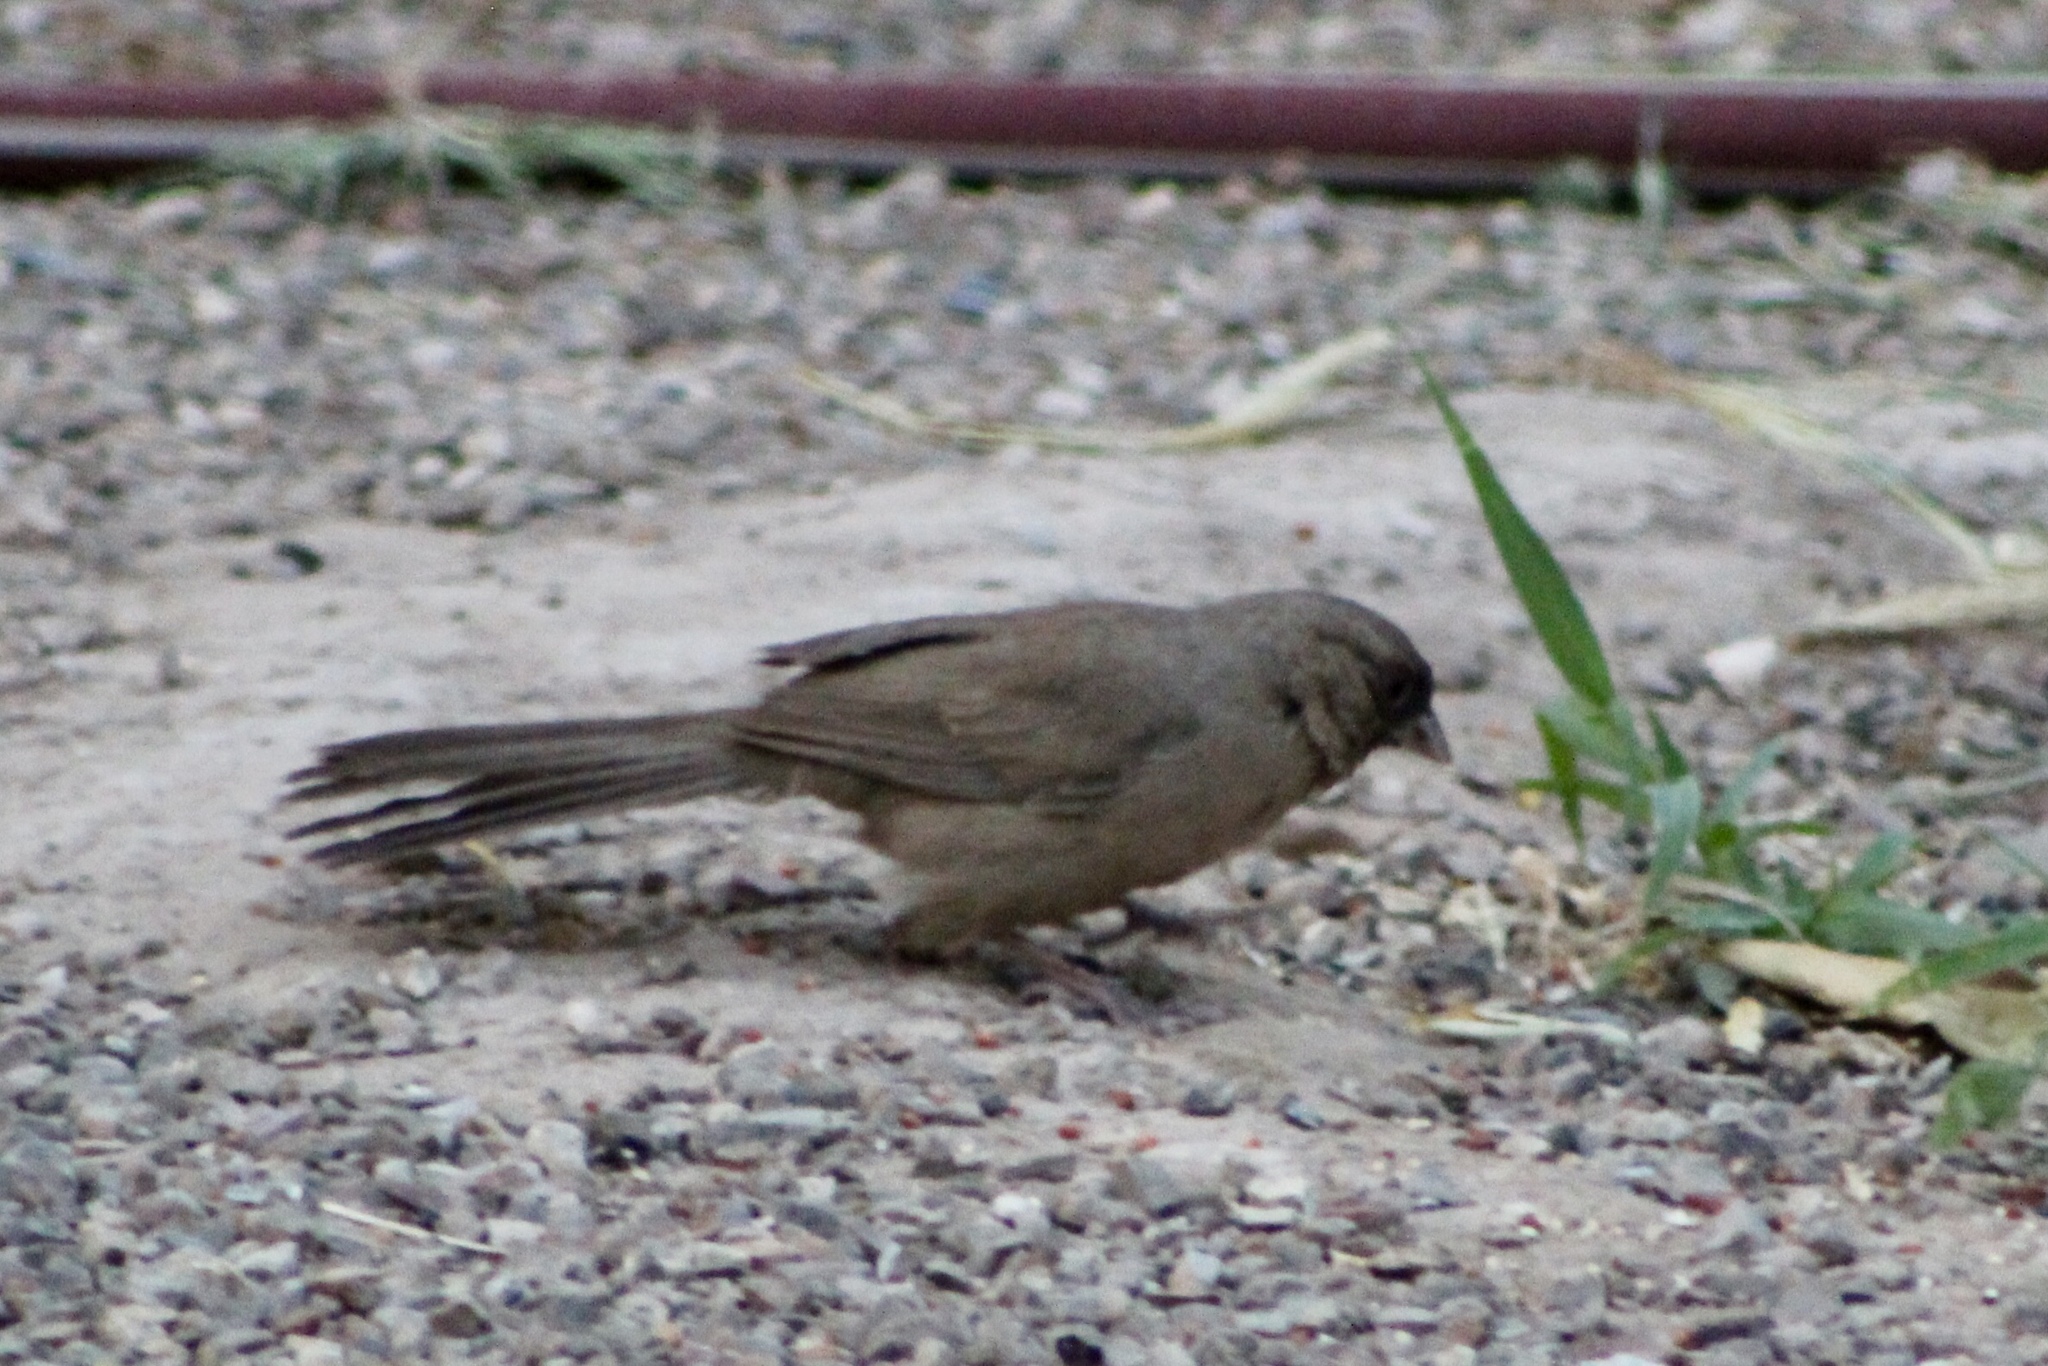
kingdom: Animalia
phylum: Chordata
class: Aves
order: Passeriformes
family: Passerellidae
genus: Melozone
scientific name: Melozone aberti
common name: Abert's towhee
